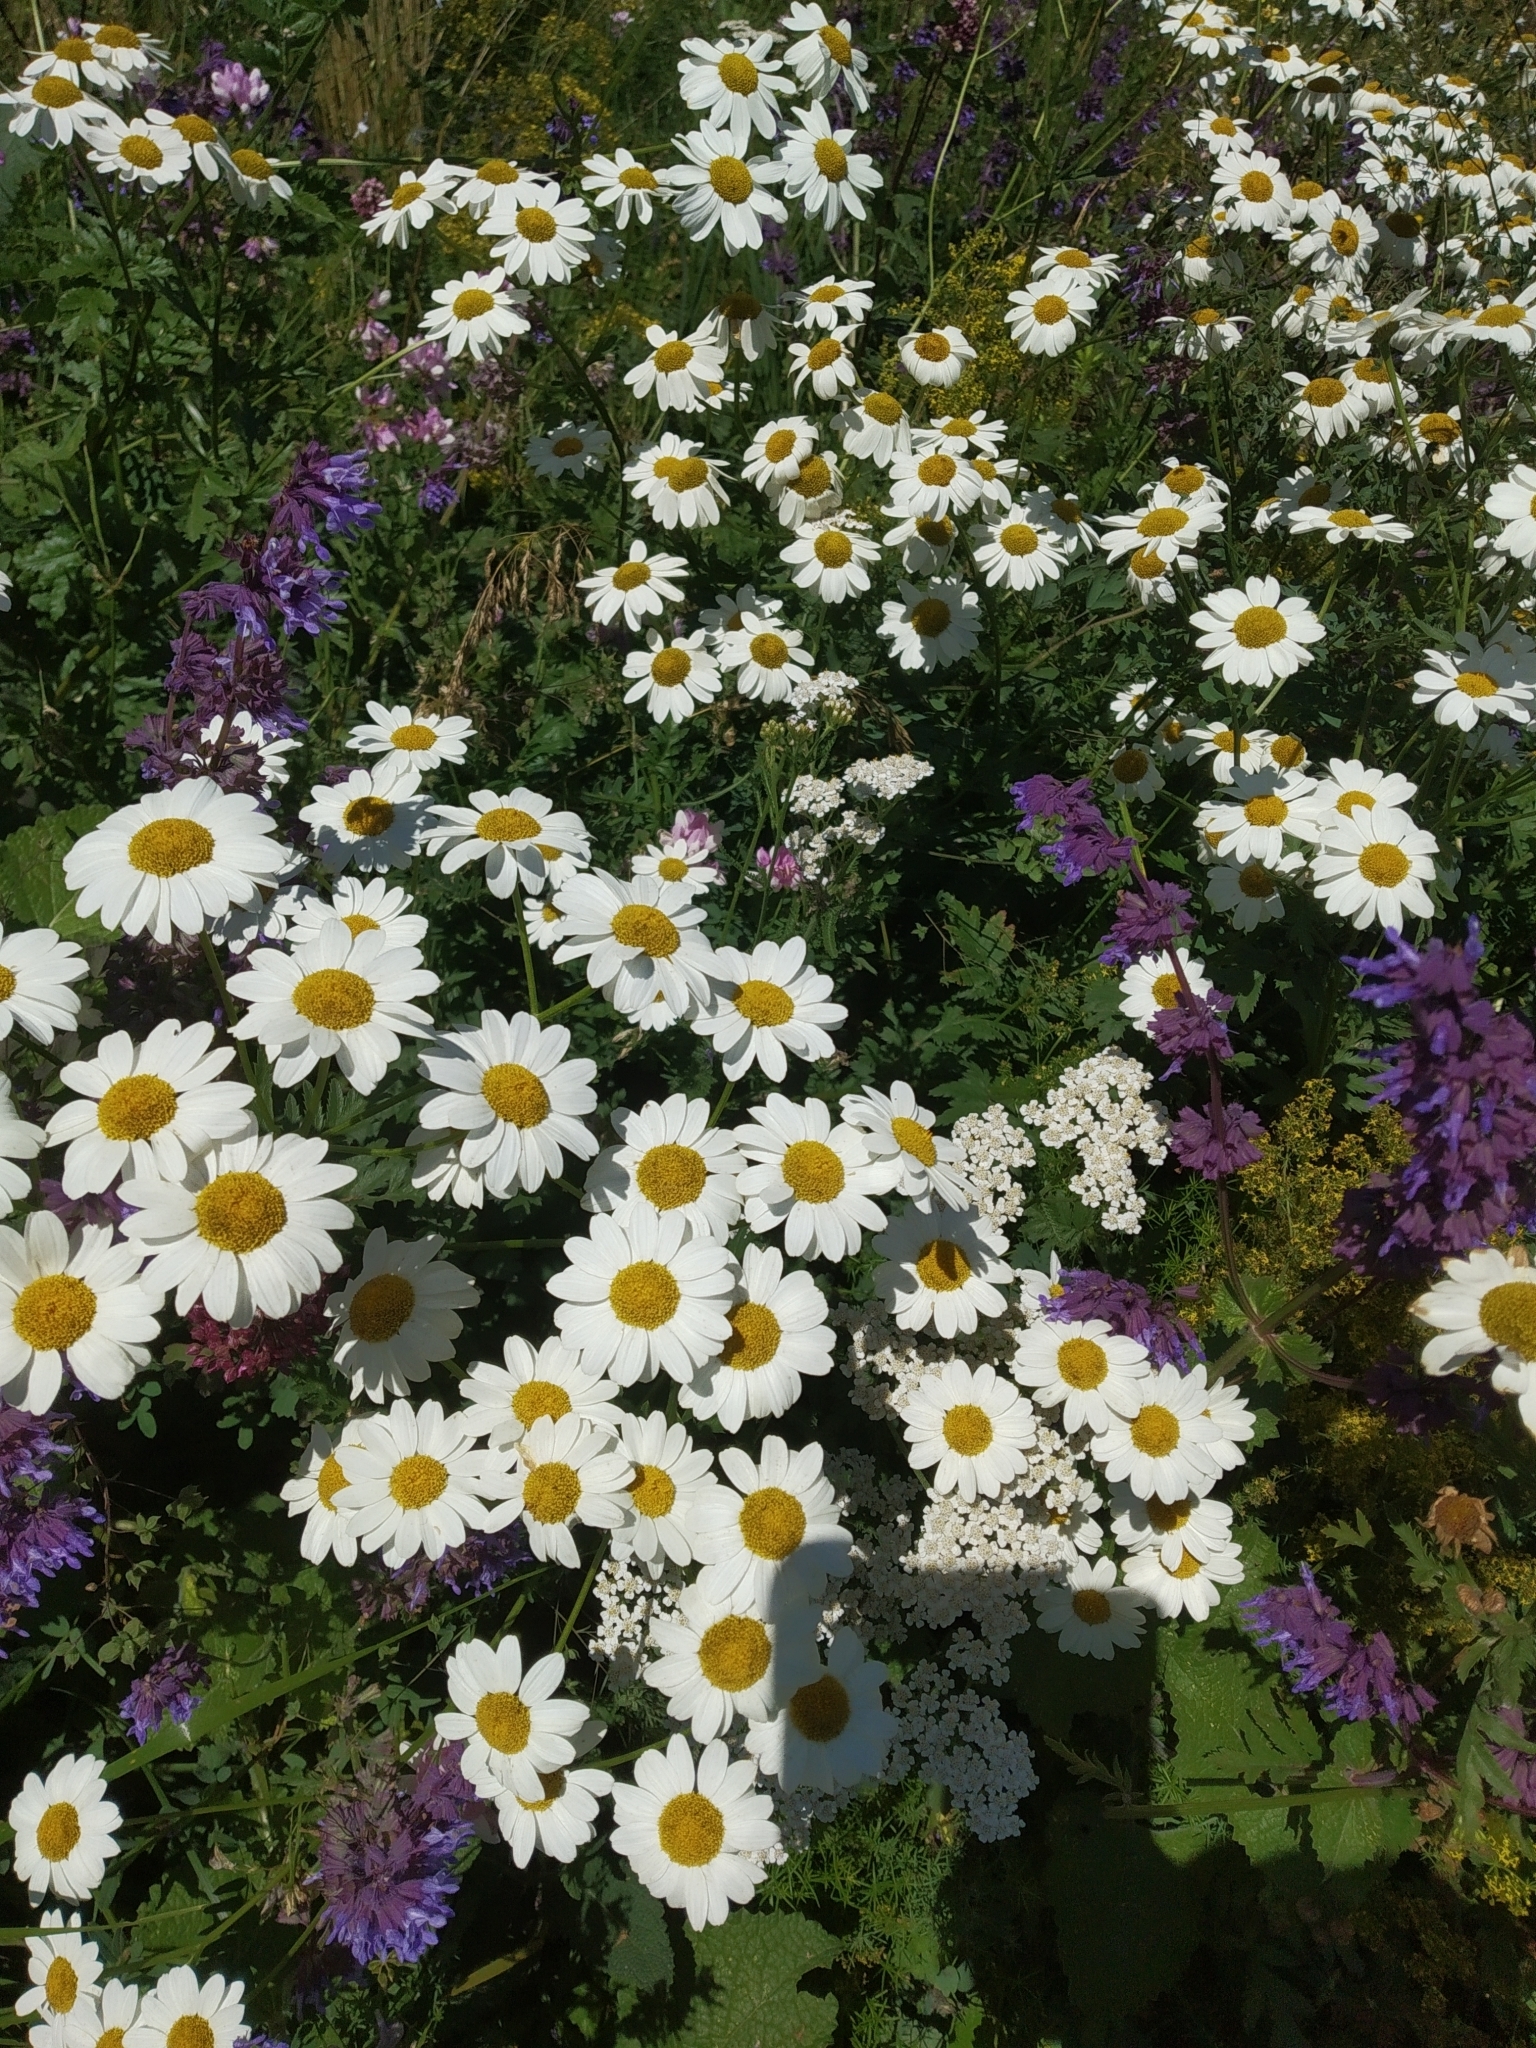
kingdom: Plantae
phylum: Tracheophyta
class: Magnoliopsida
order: Asterales
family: Asteraceae
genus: Tanacetum
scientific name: Tanacetum corymbosum
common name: Scentless feverfew
